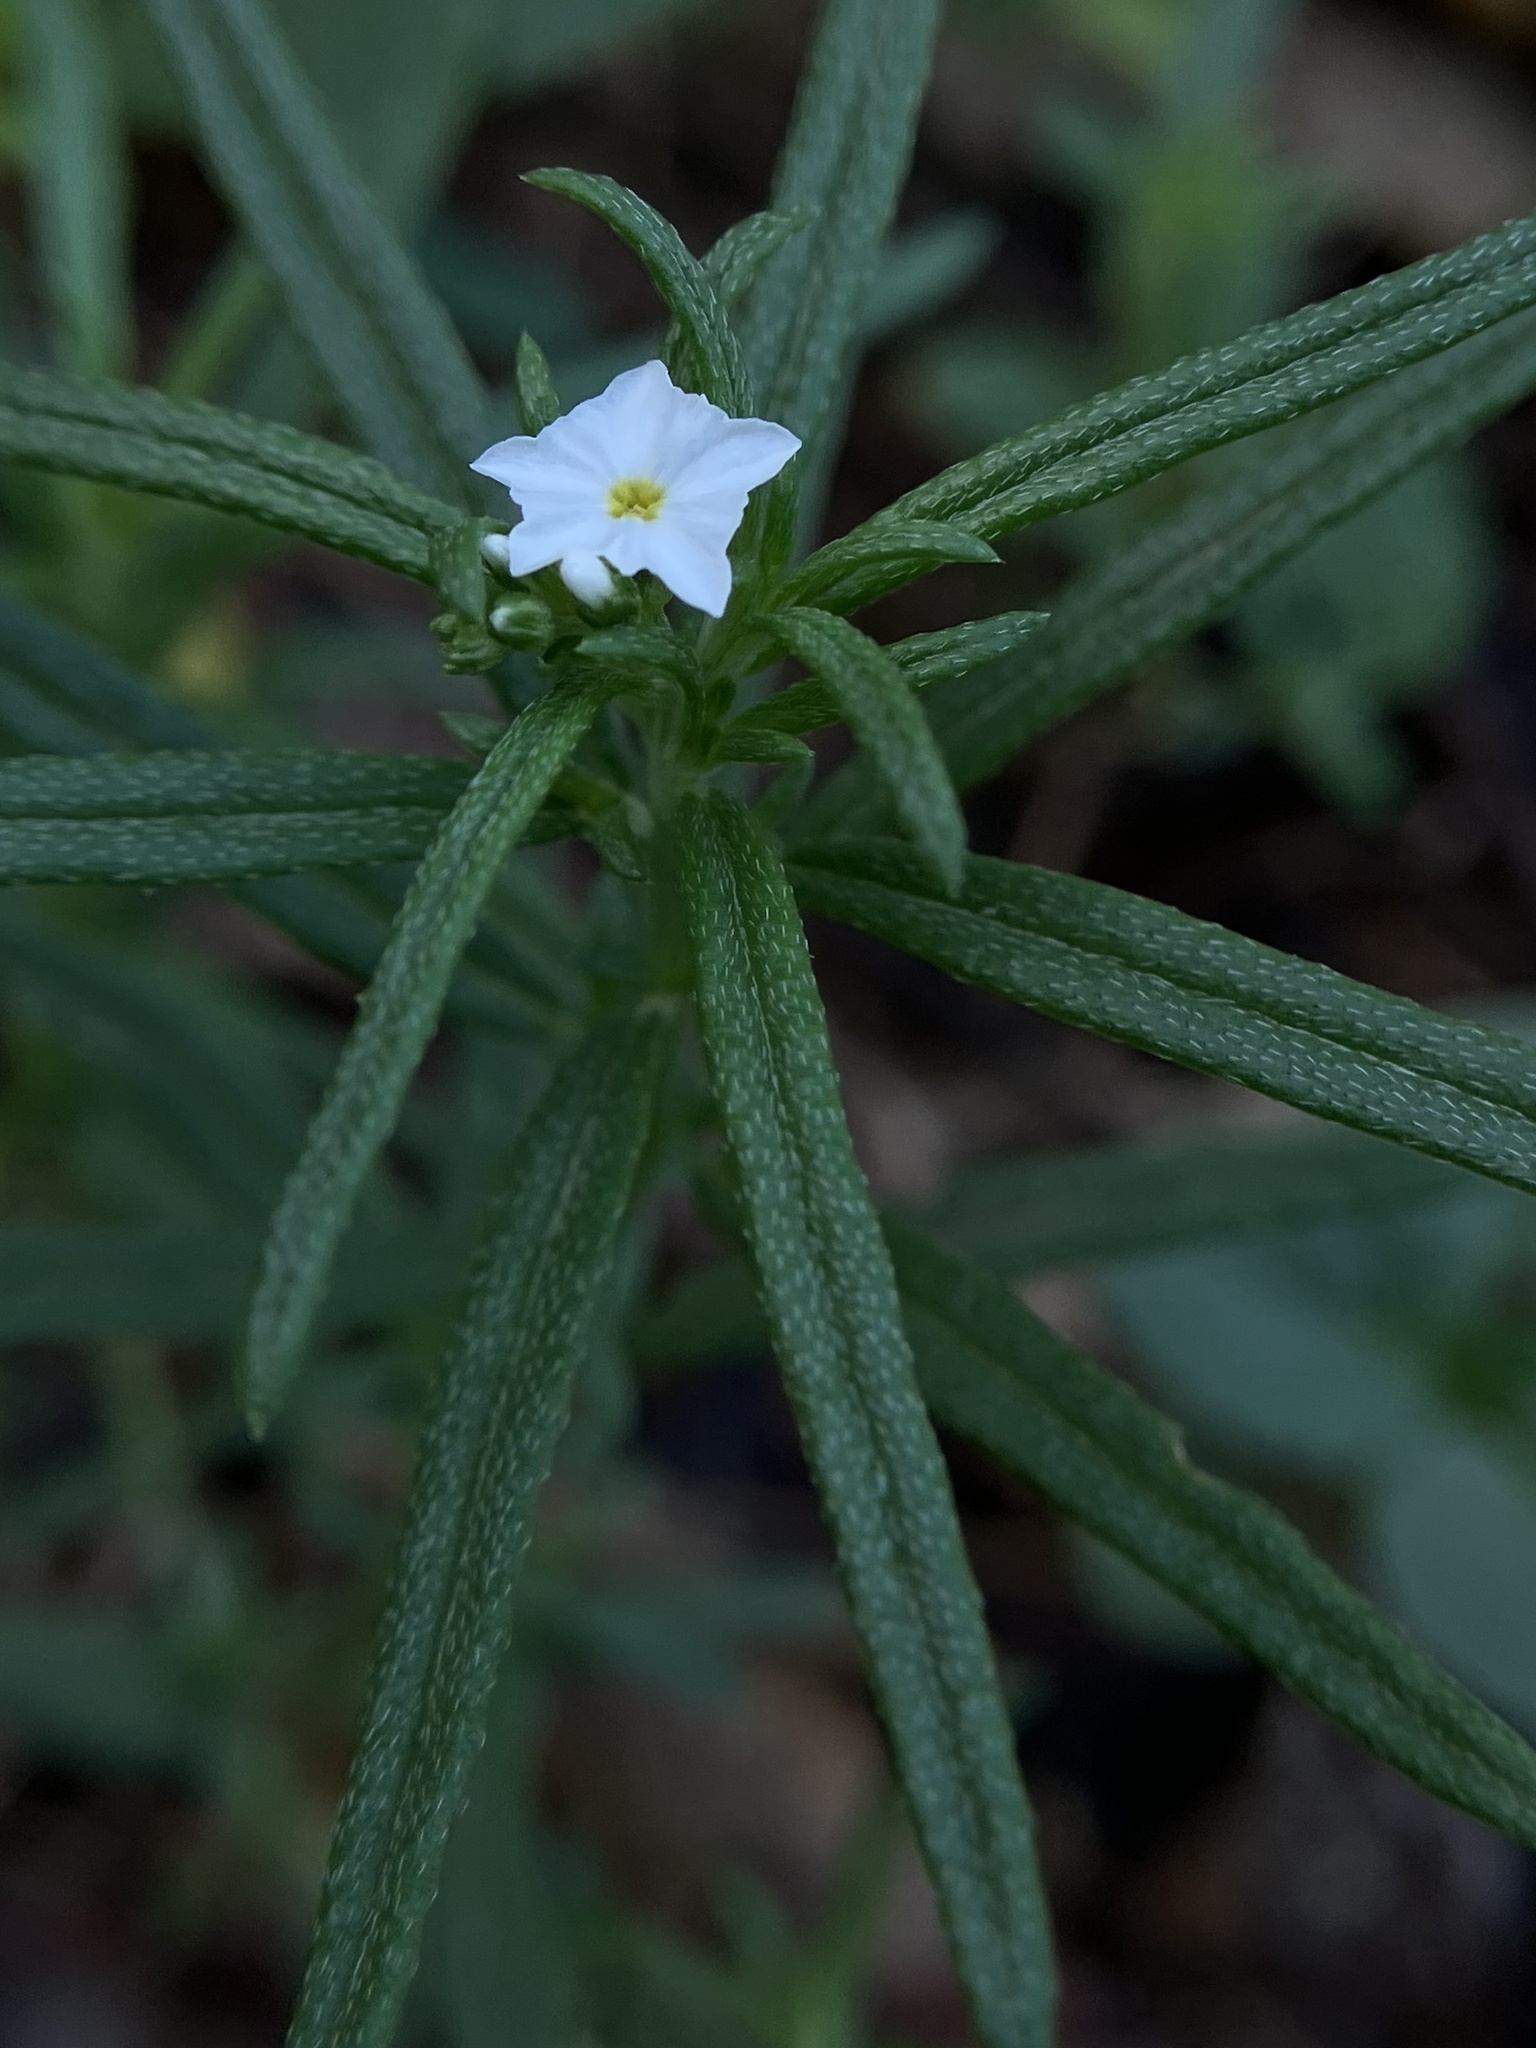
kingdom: Plantae
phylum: Tracheophyta
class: Magnoliopsida
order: Boraginales
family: Heliotropiaceae
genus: Euploca
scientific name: Euploca strigosa
